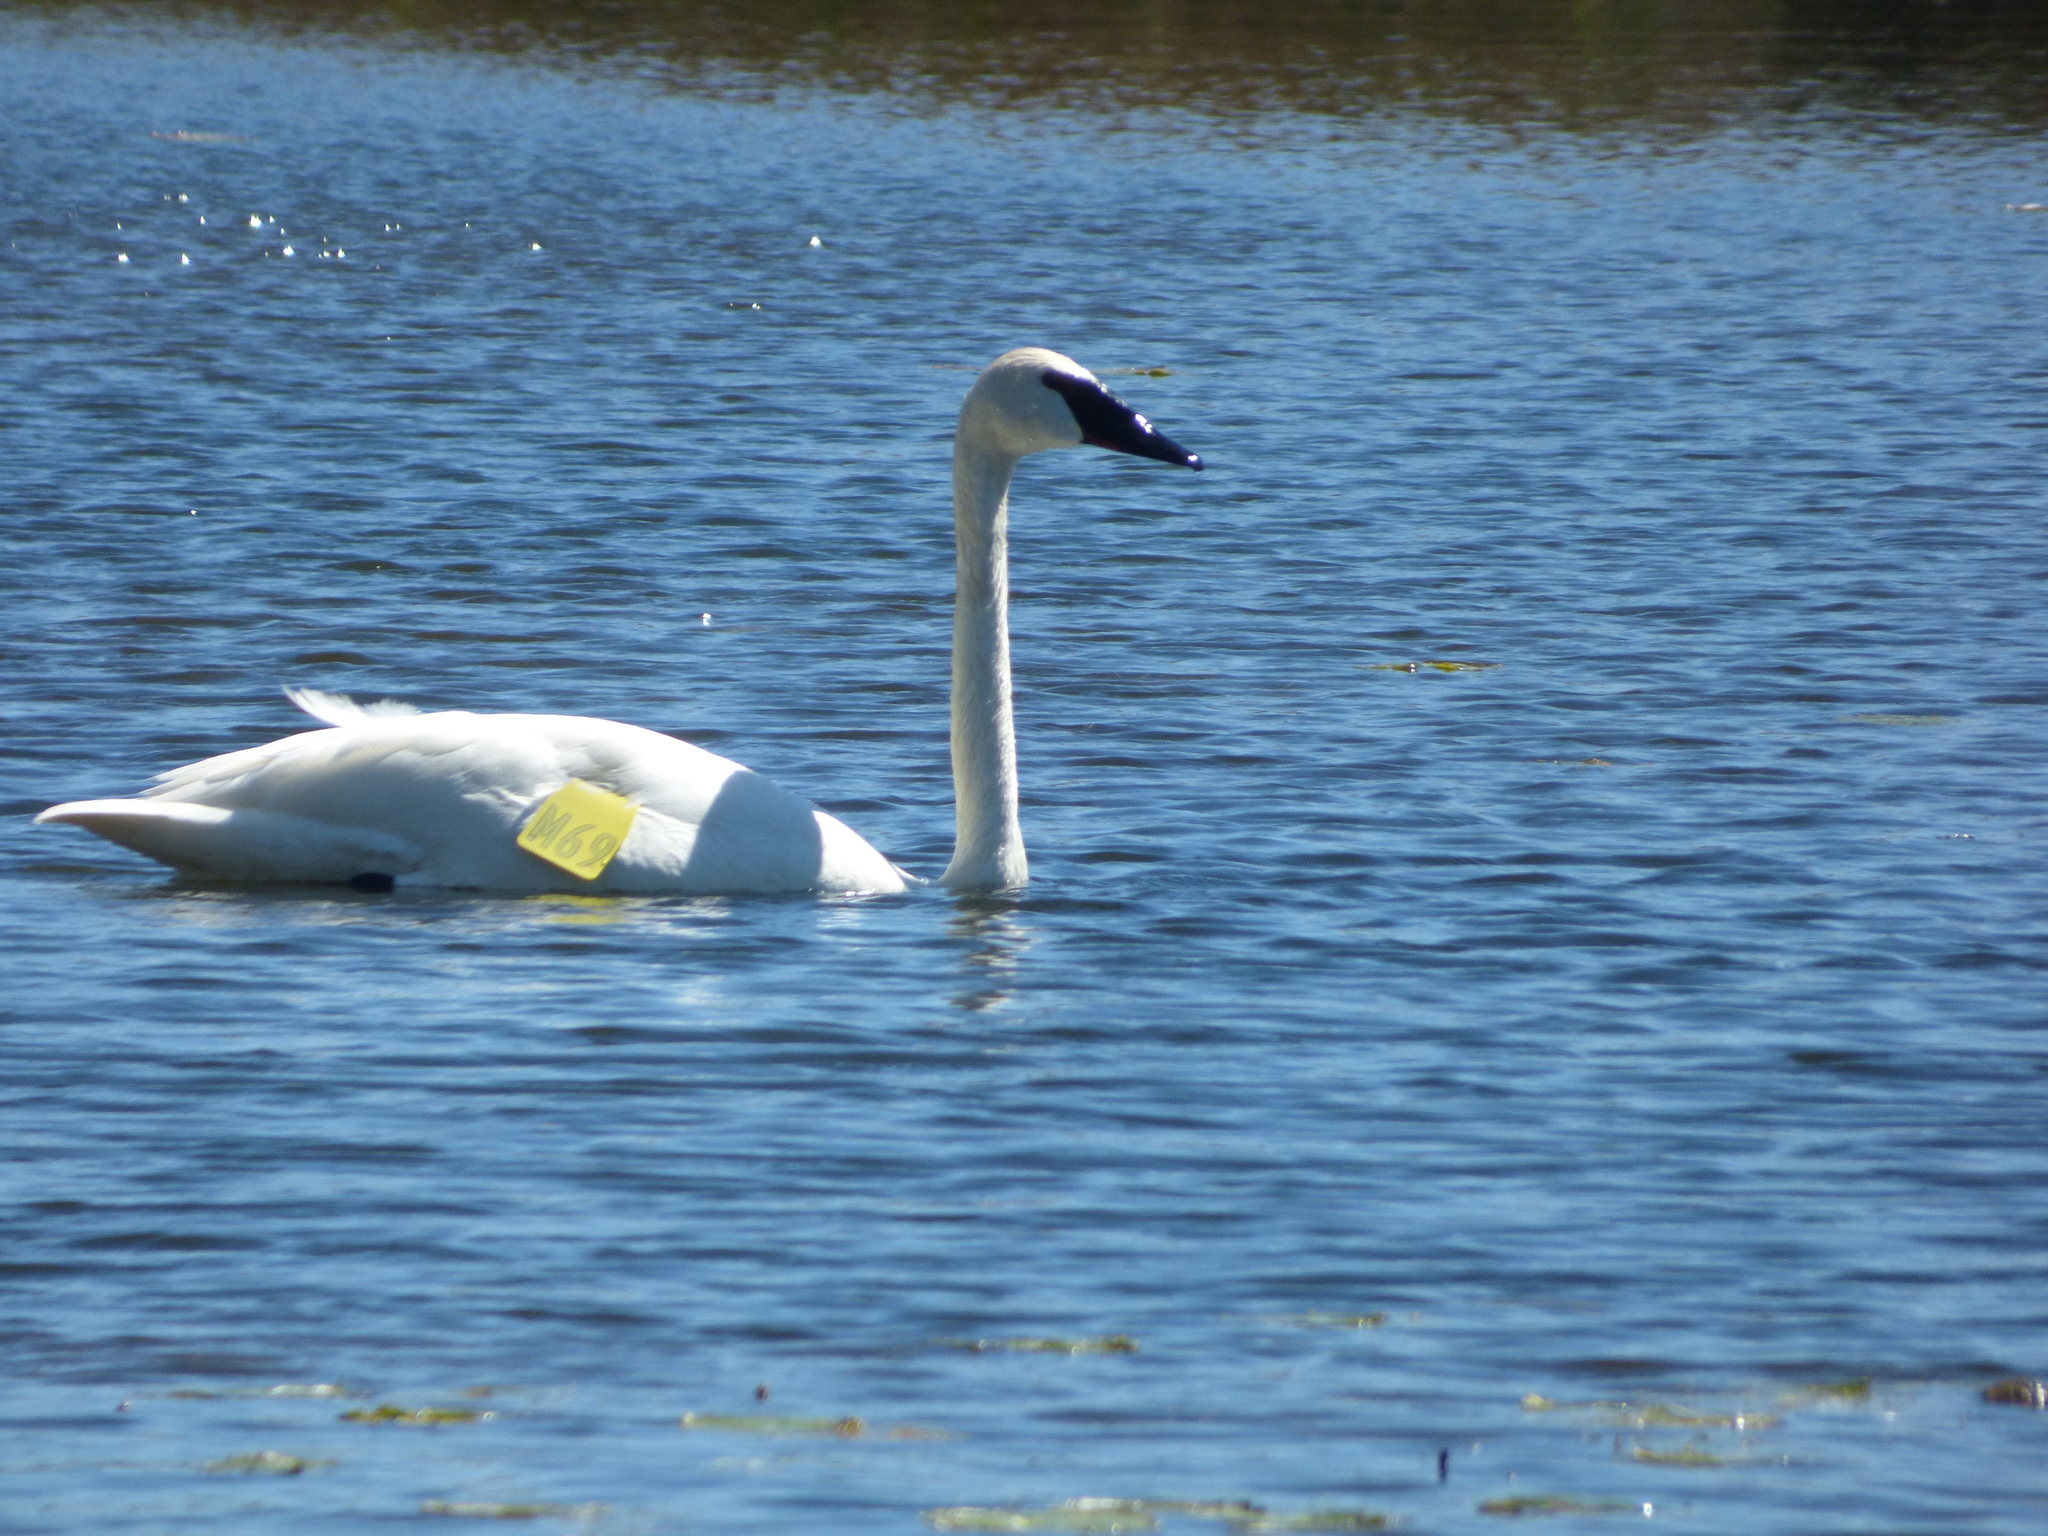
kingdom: Animalia
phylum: Chordata
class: Aves
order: Anseriformes
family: Anatidae
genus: Cygnus
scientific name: Cygnus buccinator
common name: Trumpeter swan
